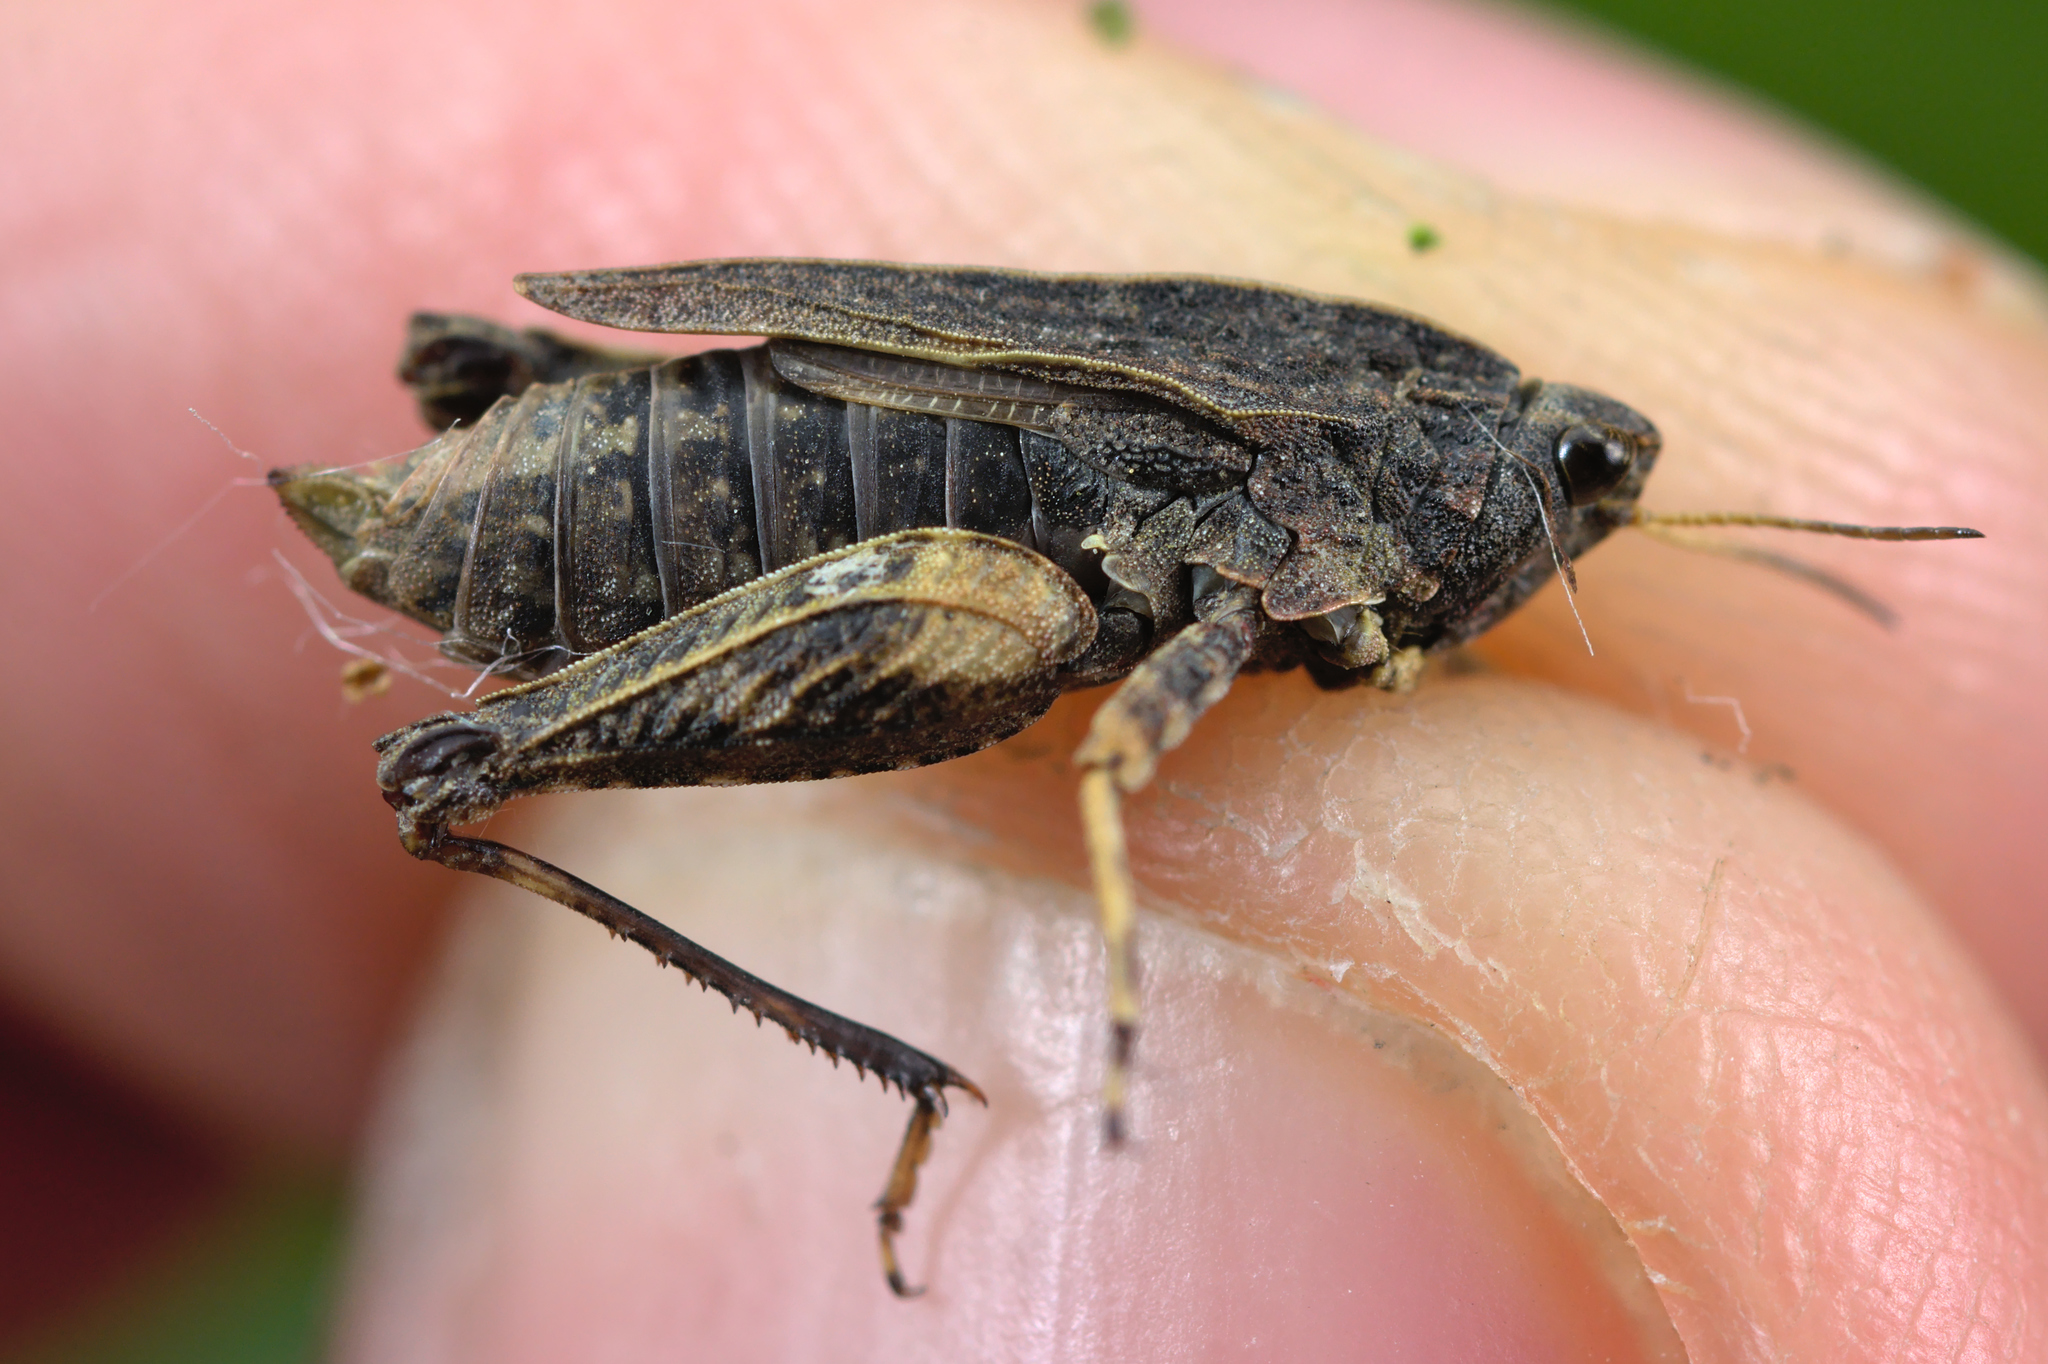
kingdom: Animalia
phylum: Arthropoda
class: Insecta
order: Orthoptera
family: Tetrigidae
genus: Tetrix
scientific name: Tetrix undulata
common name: Common groundhopper
